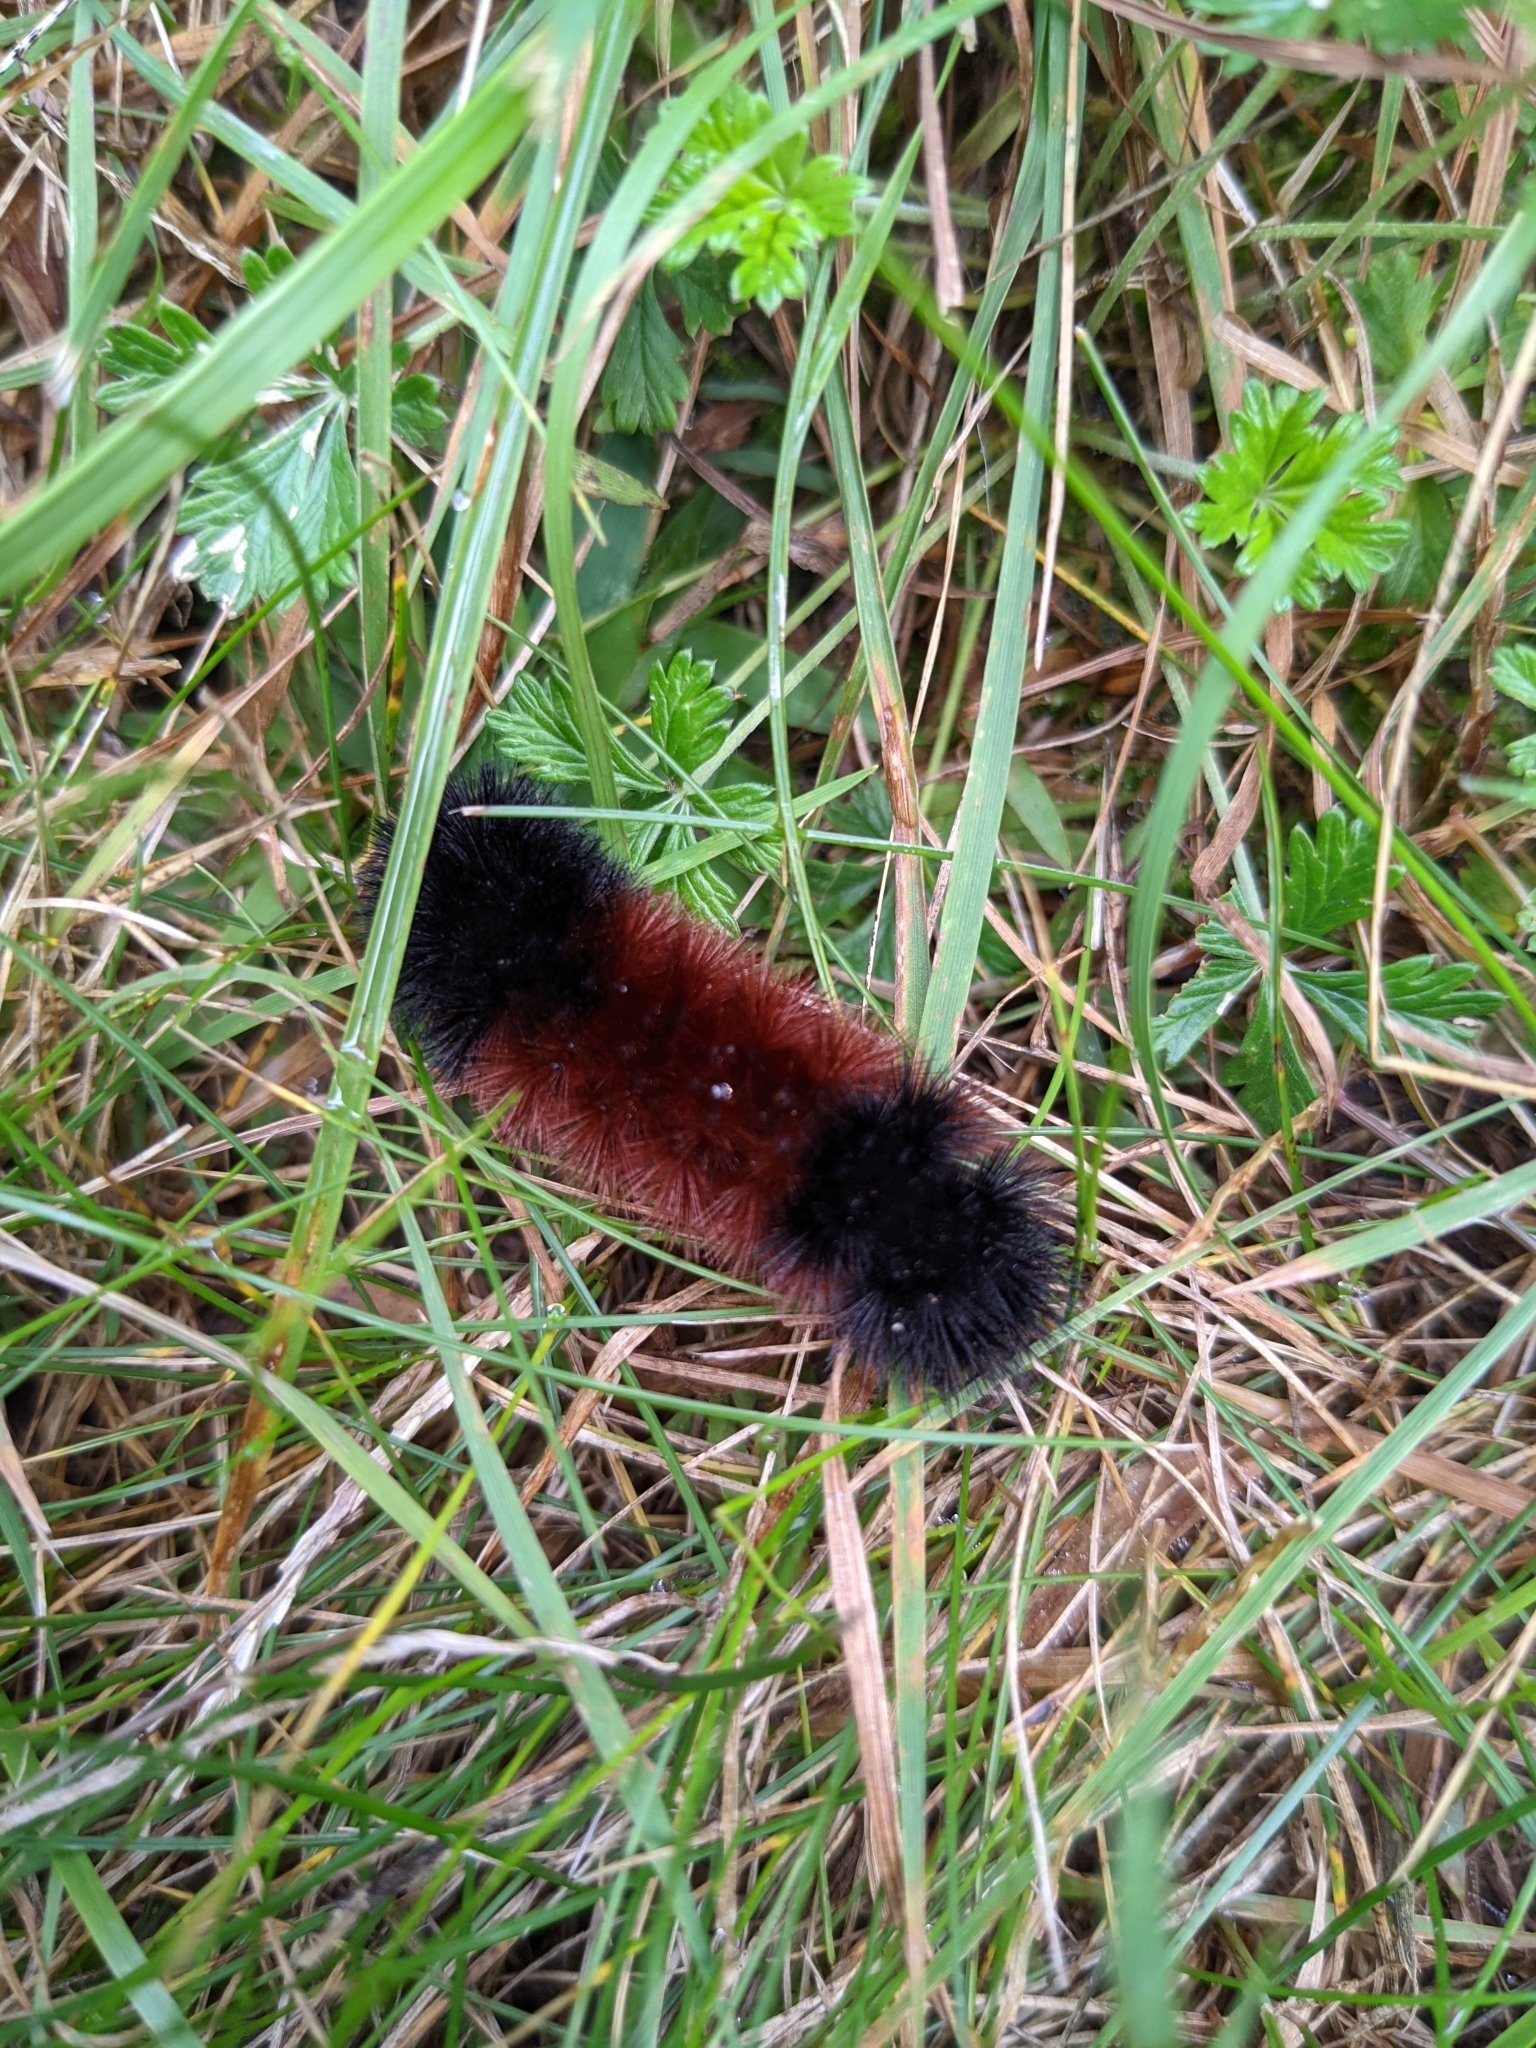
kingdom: Animalia
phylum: Arthropoda
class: Insecta
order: Lepidoptera
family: Erebidae
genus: Pyrrharctia
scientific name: Pyrrharctia isabella
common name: Isabella tiger moth
